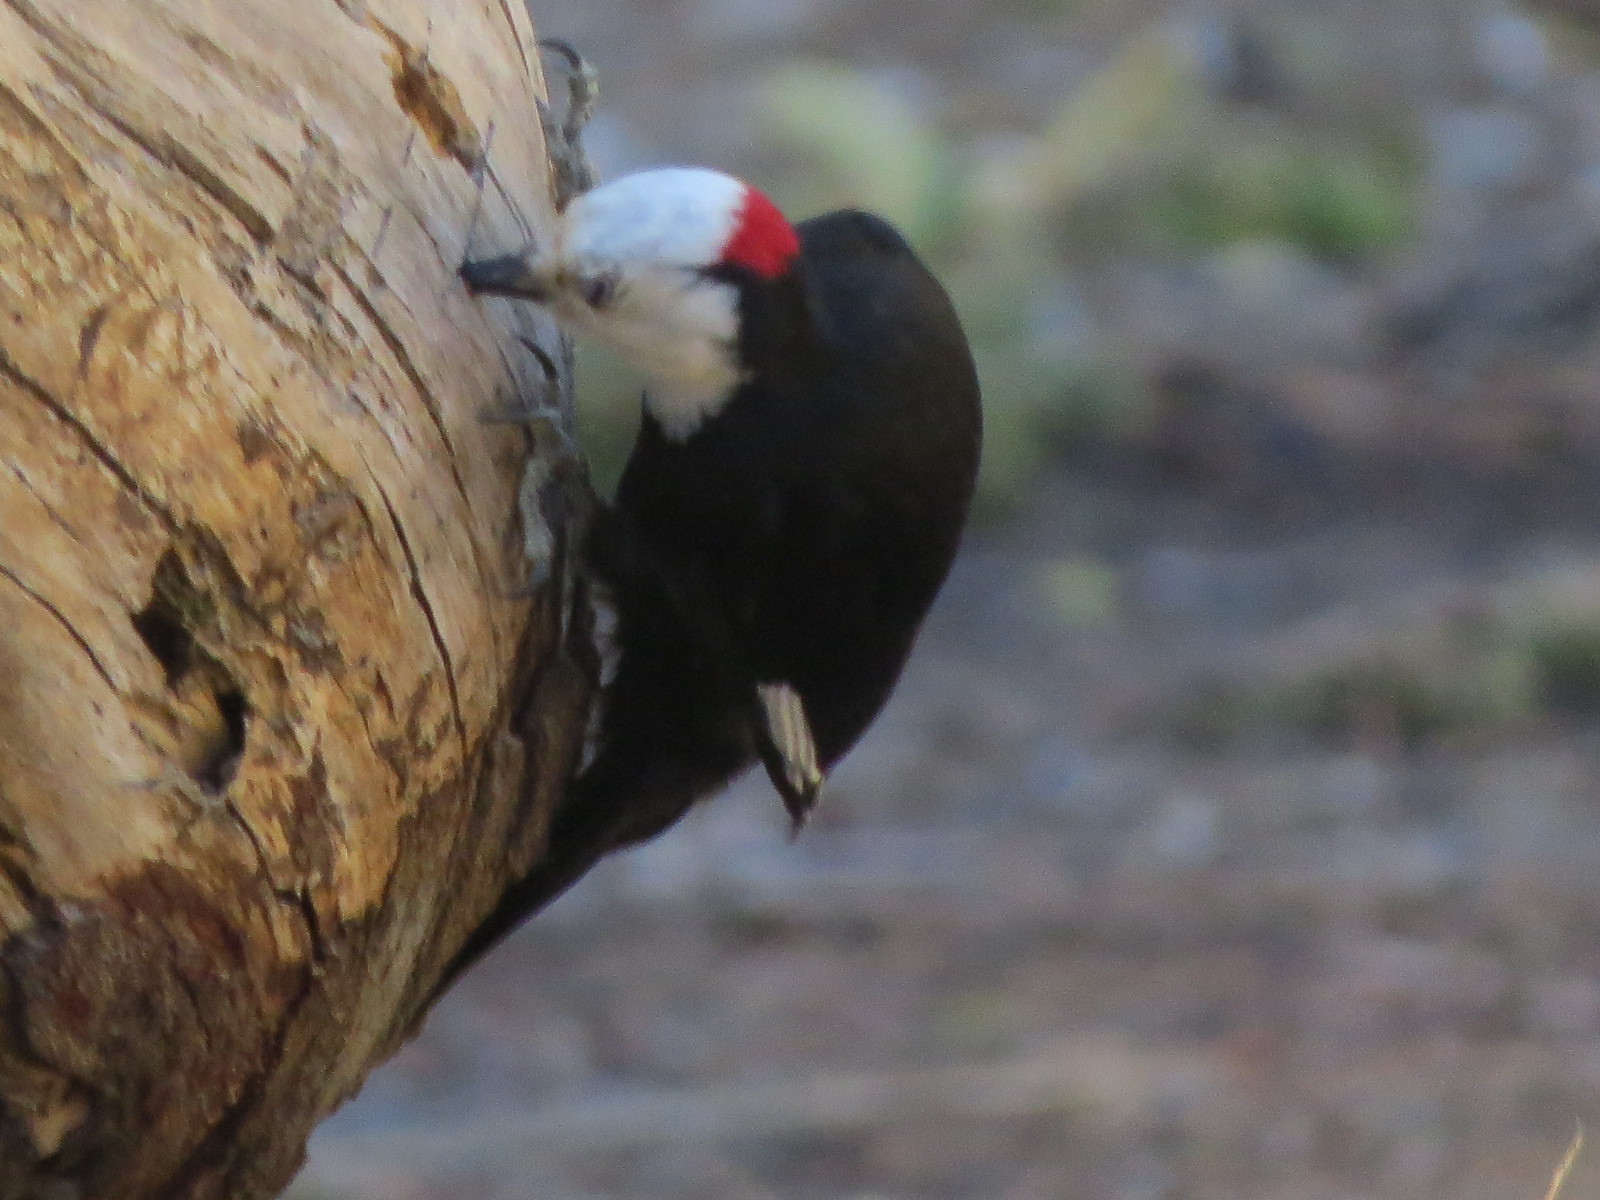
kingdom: Animalia
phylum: Chordata
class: Aves
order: Piciformes
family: Picidae
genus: Leuconotopicus
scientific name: Leuconotopicus albolarvatus
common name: White-headed woodpecker
